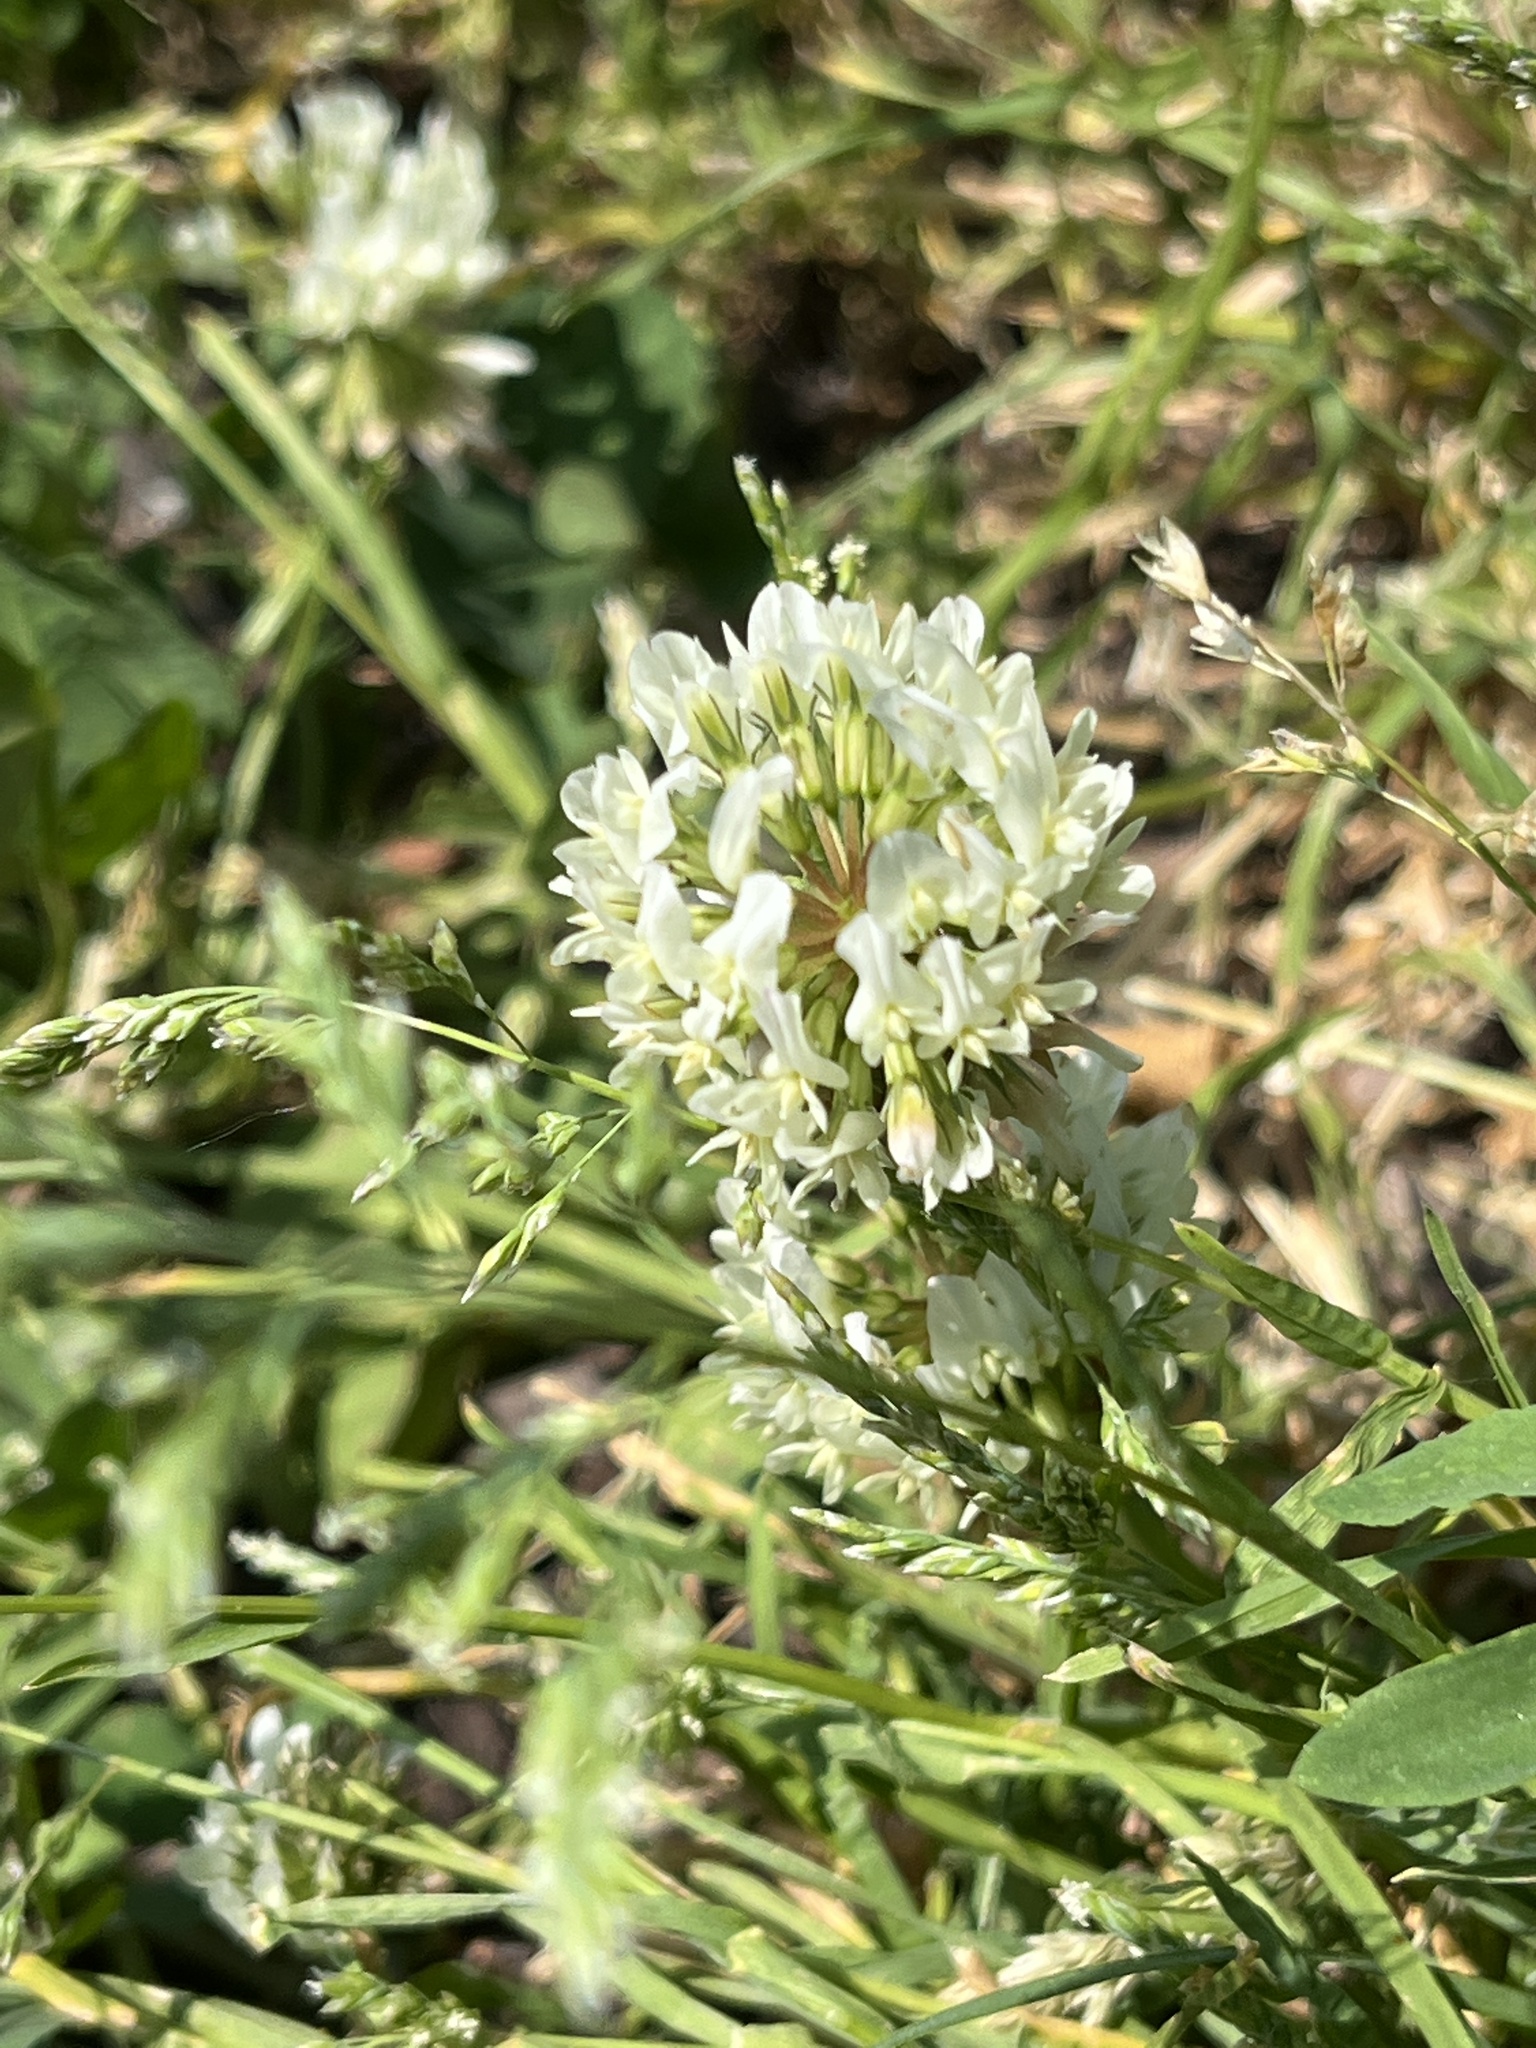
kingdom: Plantae
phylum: Tracheophyta
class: Magnoliopsida
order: Fabales
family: Fabaceae
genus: Trifolium
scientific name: Trifolium repens
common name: White clover
